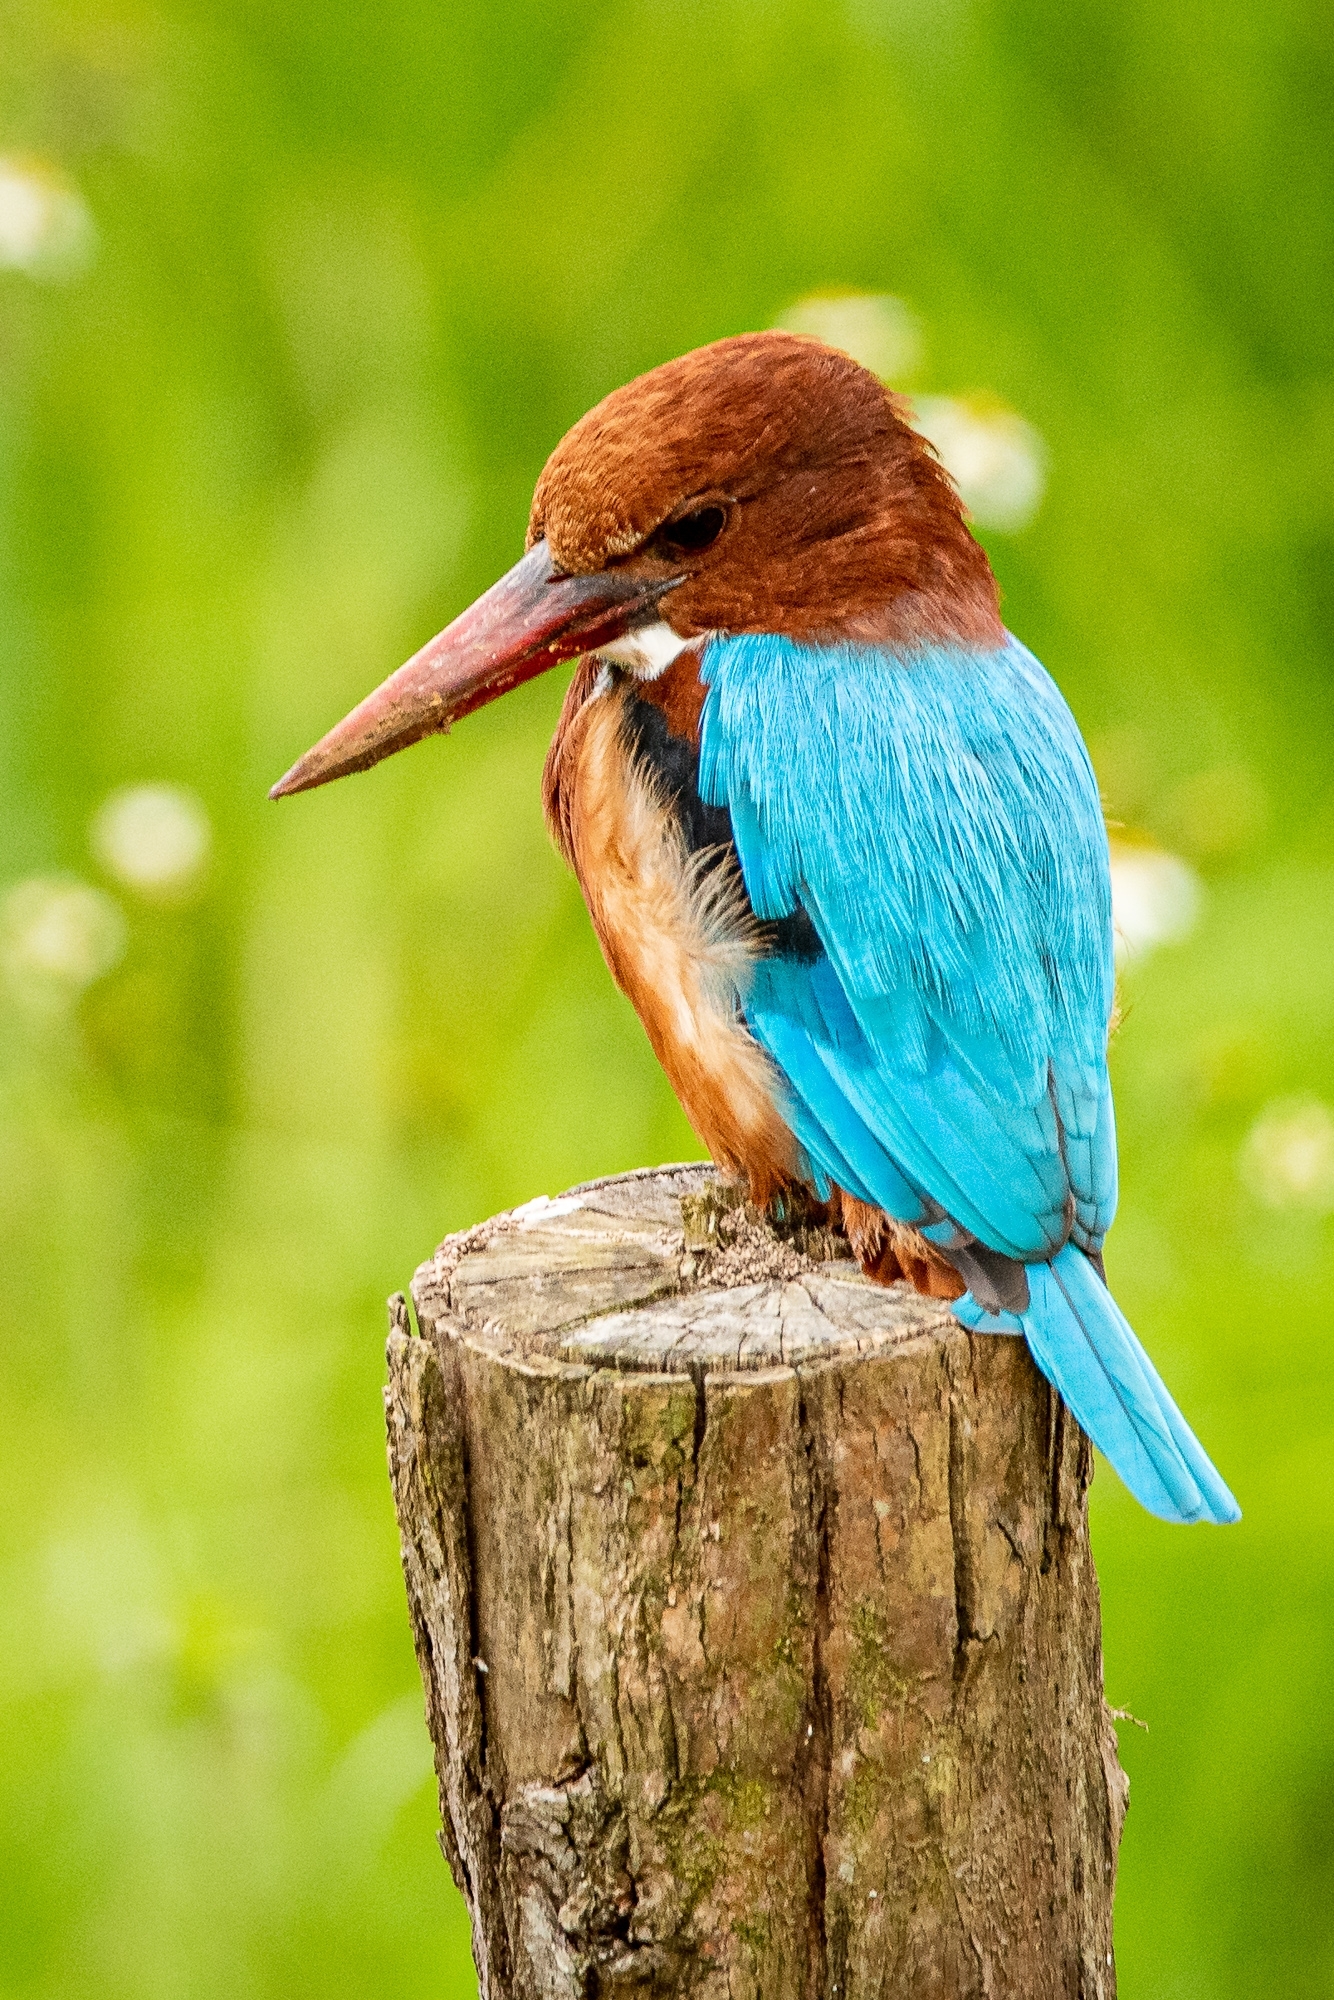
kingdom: Animalia
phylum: Chordata
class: Aves
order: Coraciiformes
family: Alcedinidae
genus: Halcyon
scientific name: Halcyon smyrnensis
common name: White-throated kingfisher
